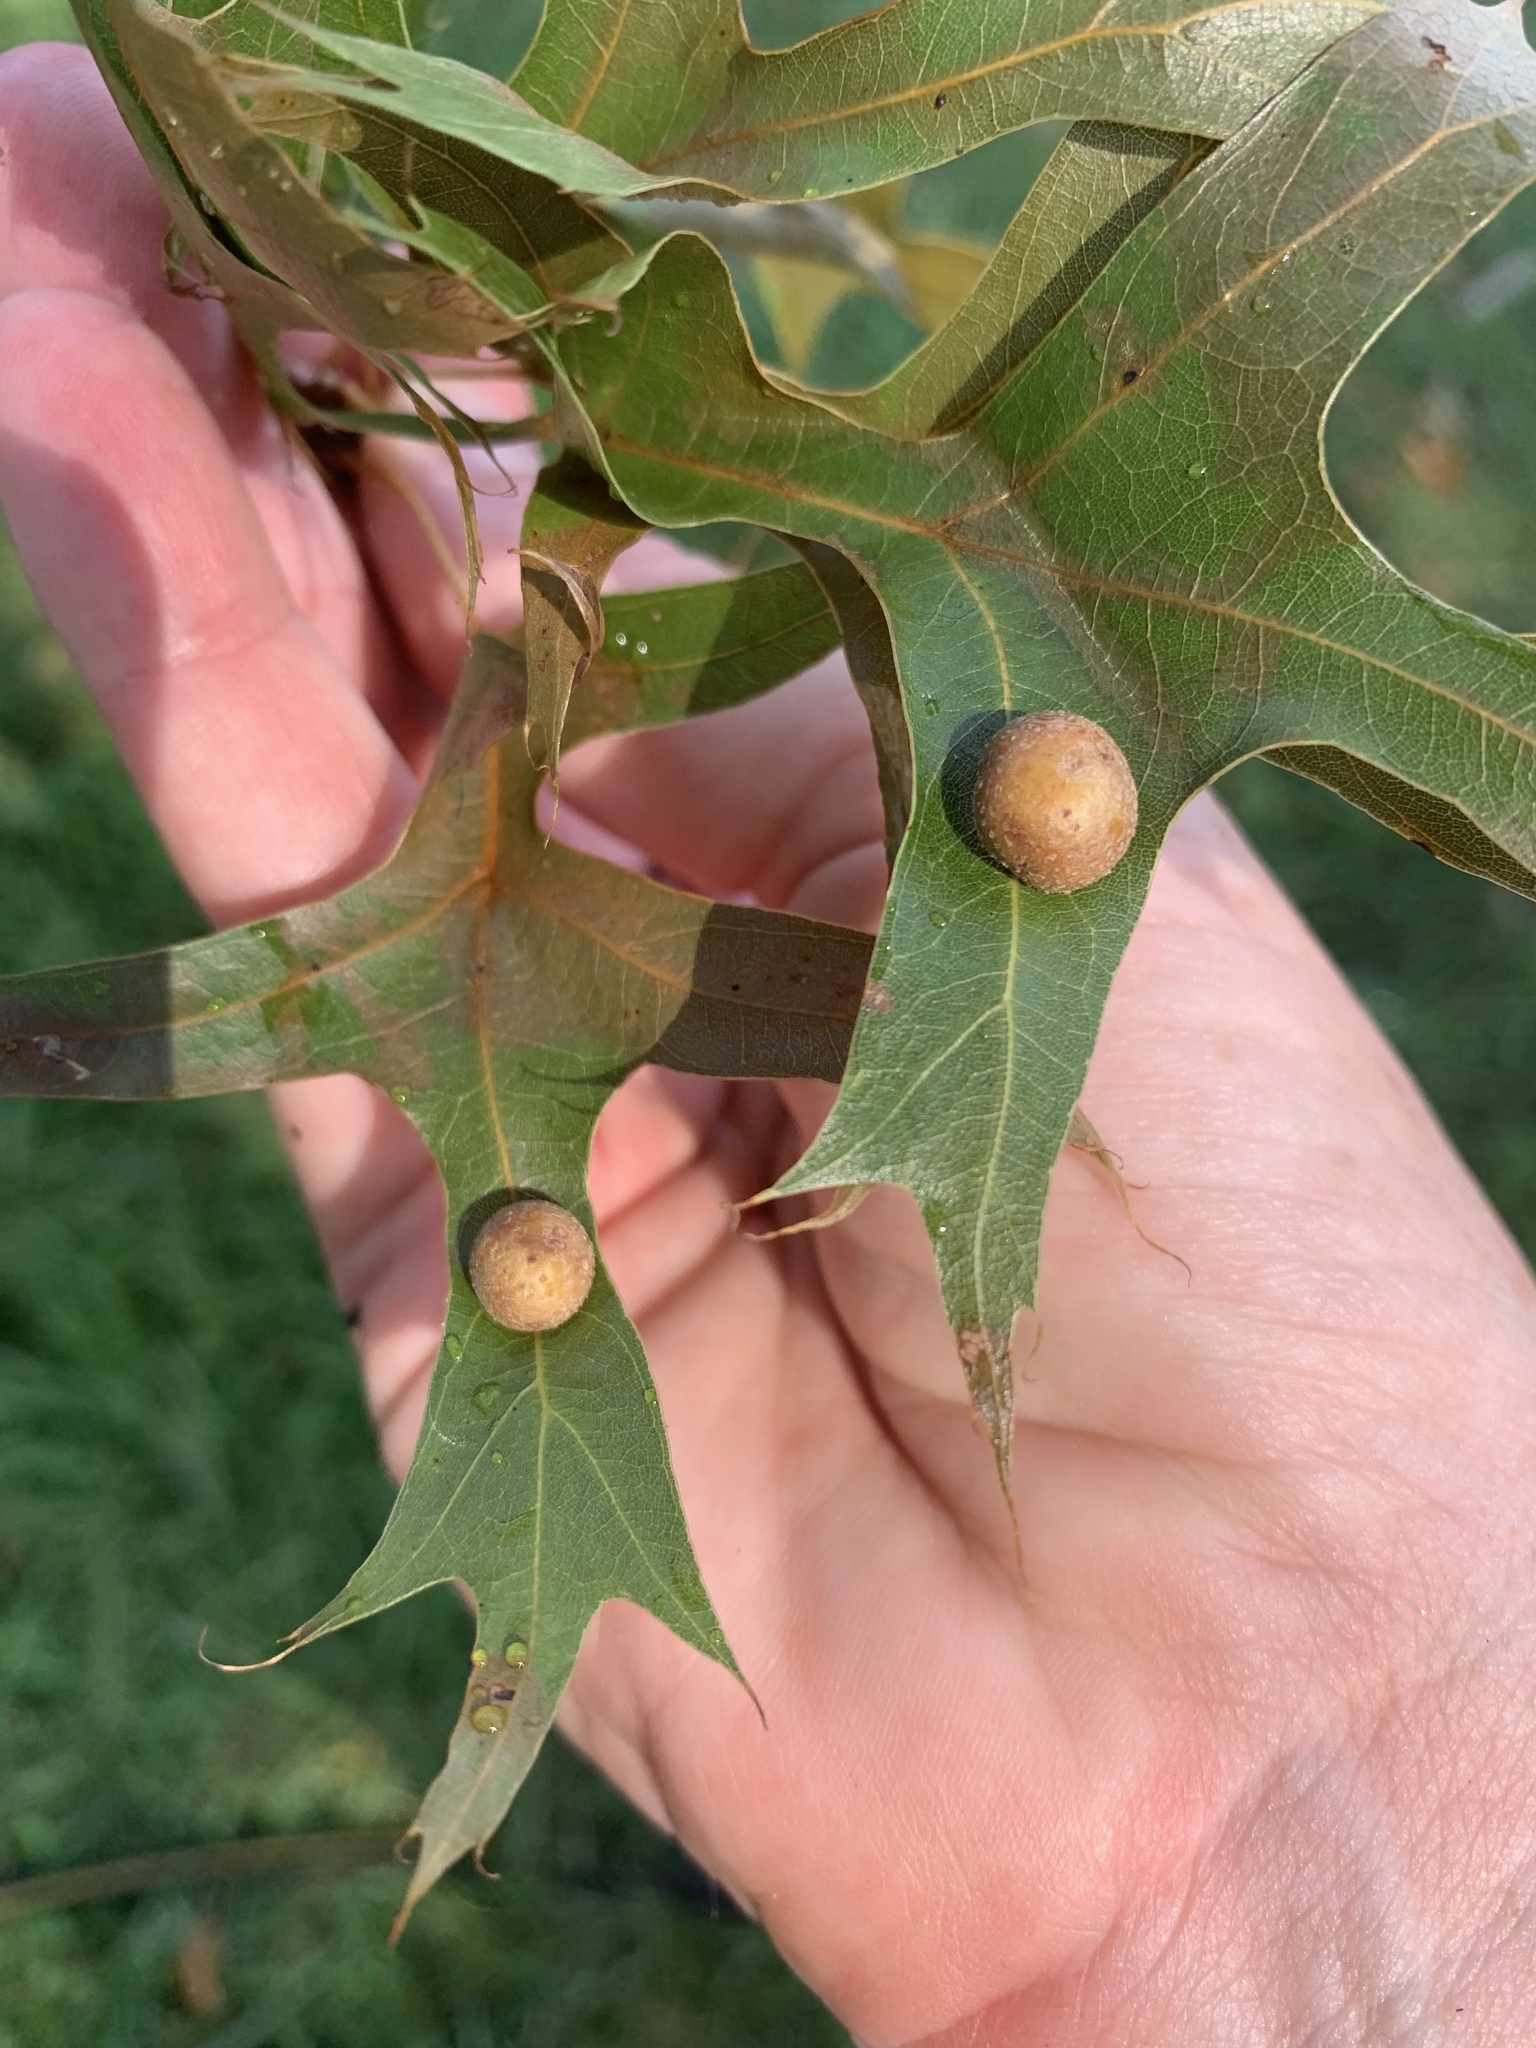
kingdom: Animalia
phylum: Arthropoda
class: Insecta
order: Diptera
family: Cecidomyiidae
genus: Polystepha
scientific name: Polystepha pilulae
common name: Oak leaf gall midge
